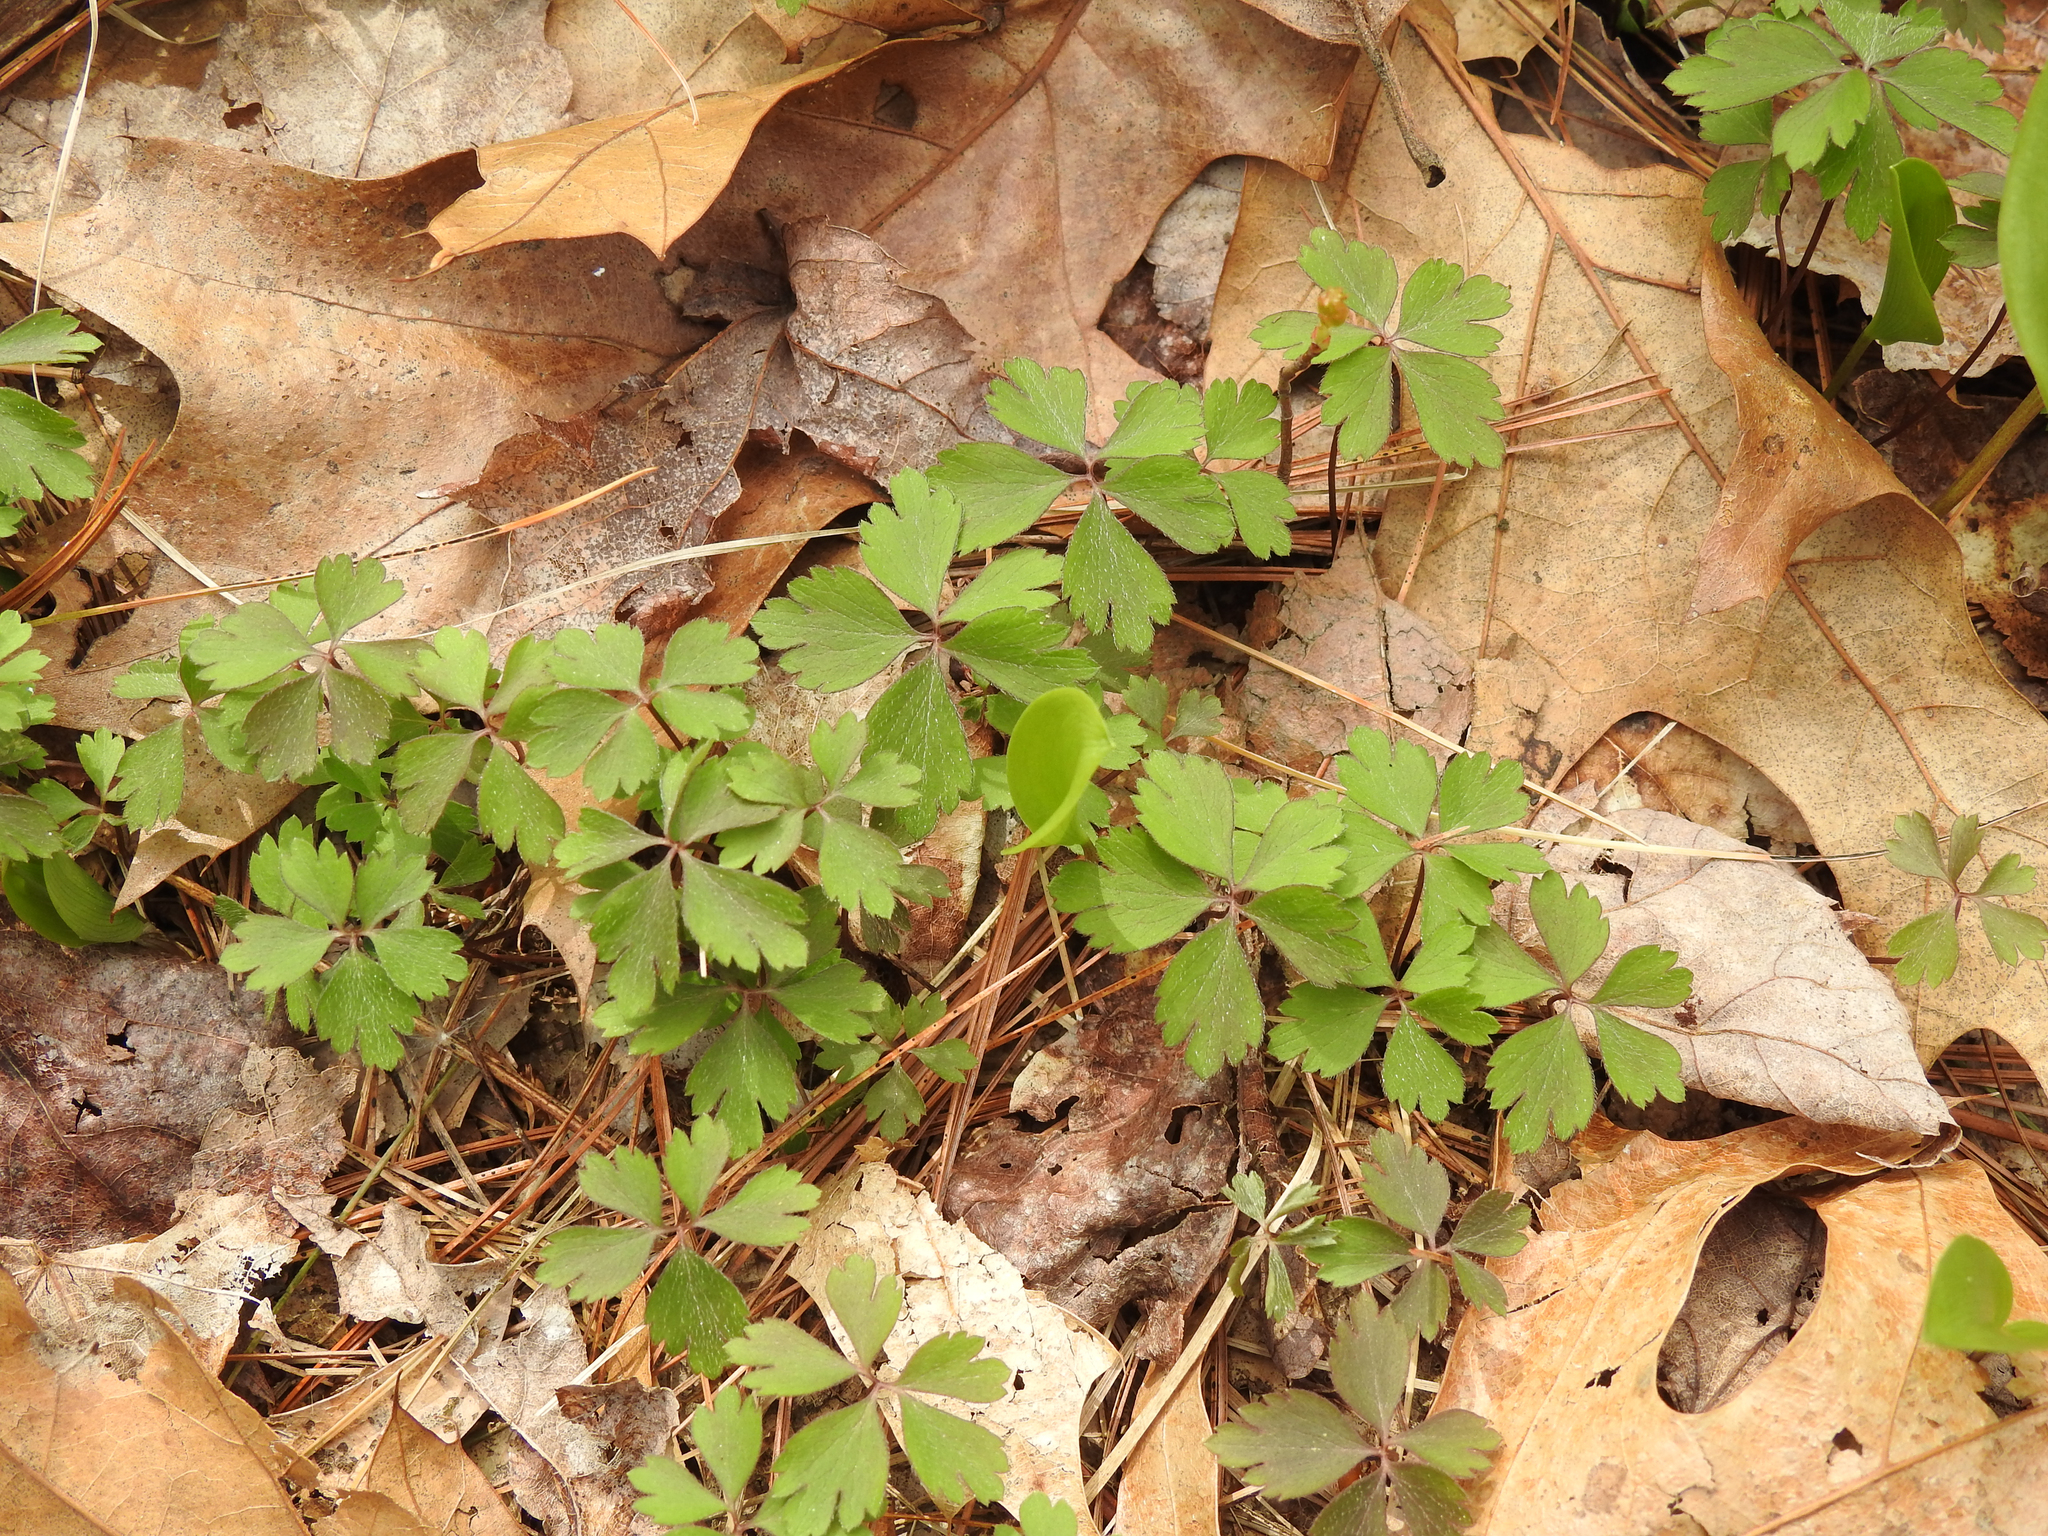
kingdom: Plantae
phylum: Tracheophyta
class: Magnoliopsida
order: Ranunculales
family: Ranunculaceae
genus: Anemone
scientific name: Anemone quinquefolia
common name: Wood anemone
